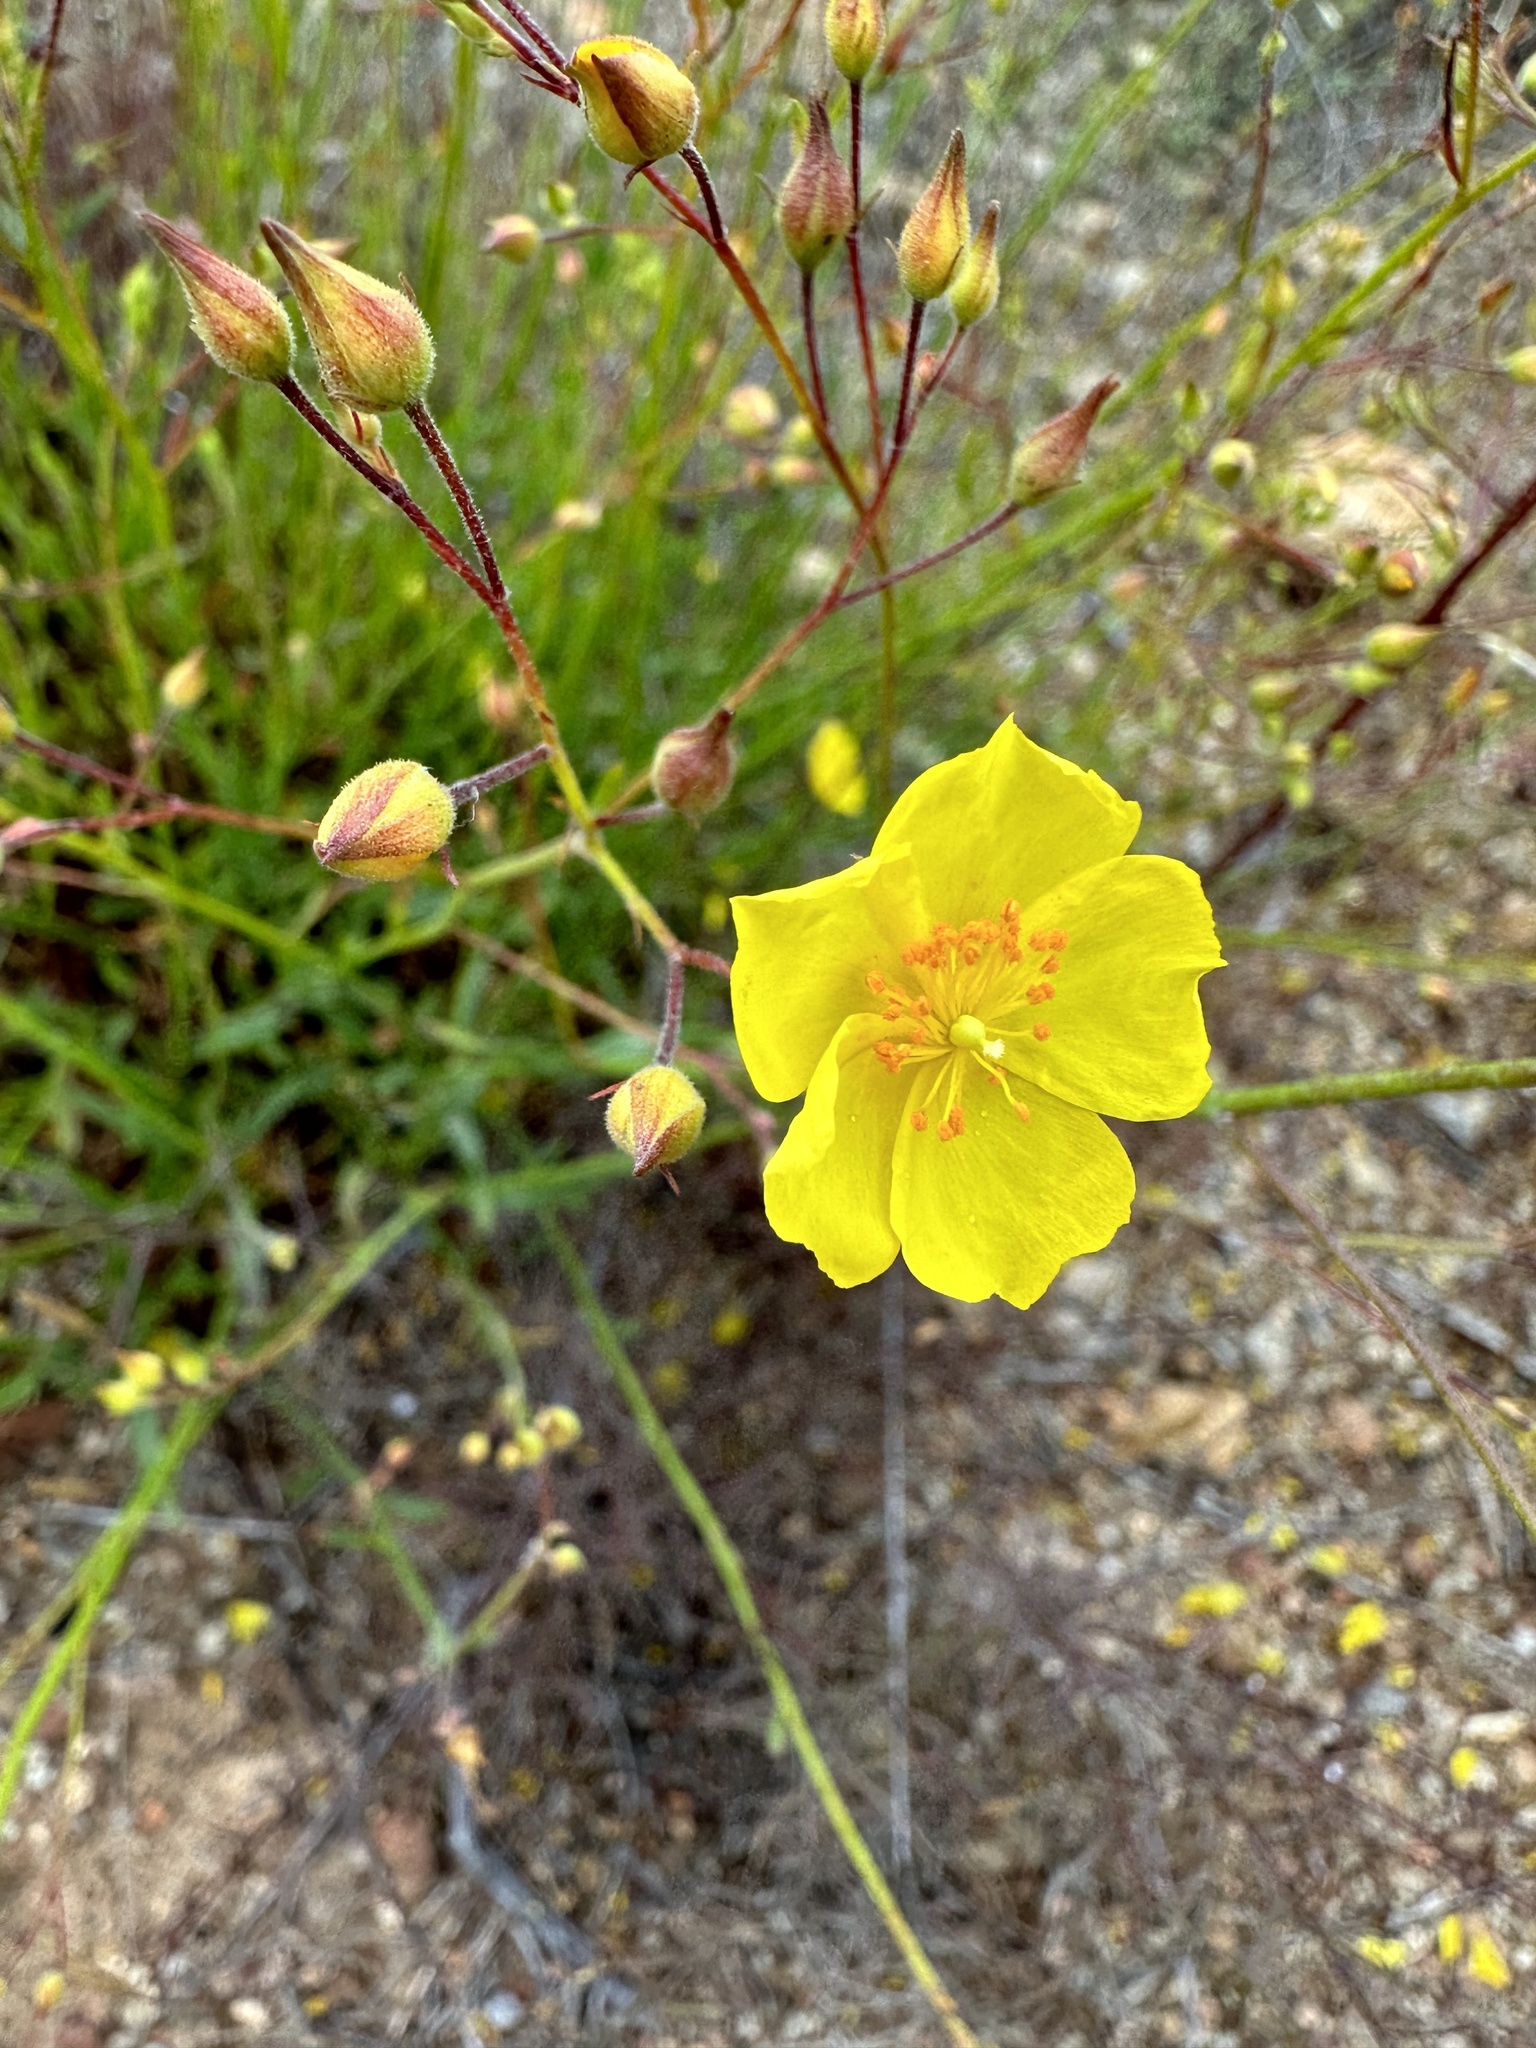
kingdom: Plantae
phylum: Tracheophyta
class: Magnoliopsida
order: Malvales
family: Cistaceae
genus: Crocanthemum
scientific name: Crocanthemum aldersonii
